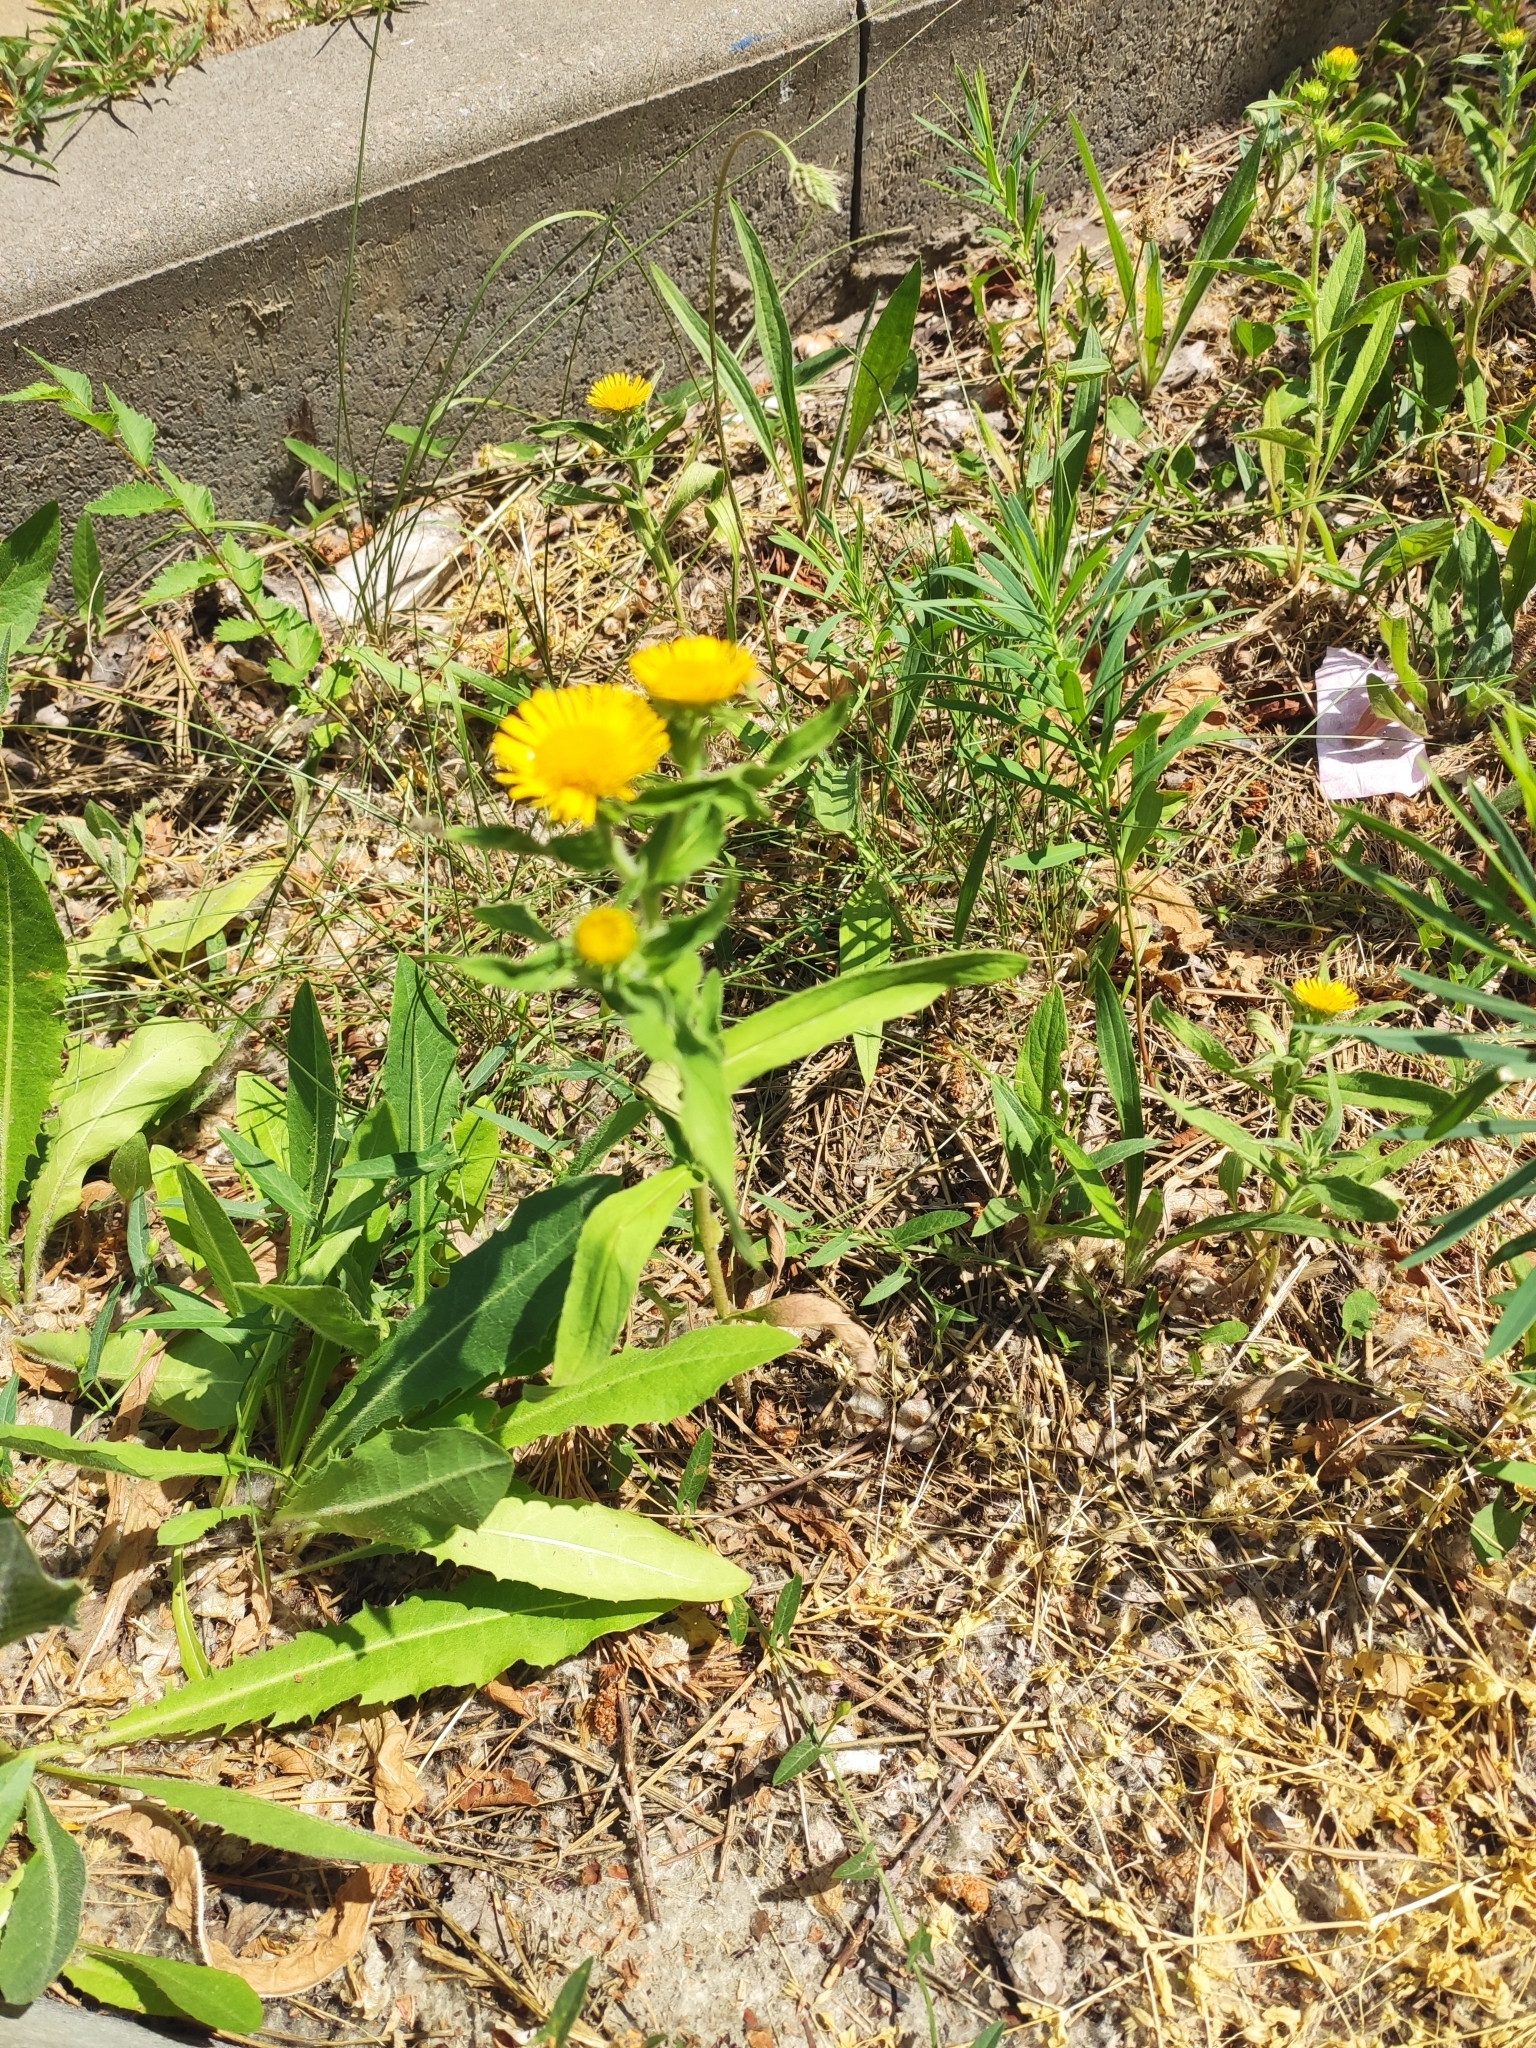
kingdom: Plantae
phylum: Tracheophyta
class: Magnoliopsida
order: Asterales
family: Asteraceae
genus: Pentanema
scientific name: Pentanema britannicum
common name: British elecampane
